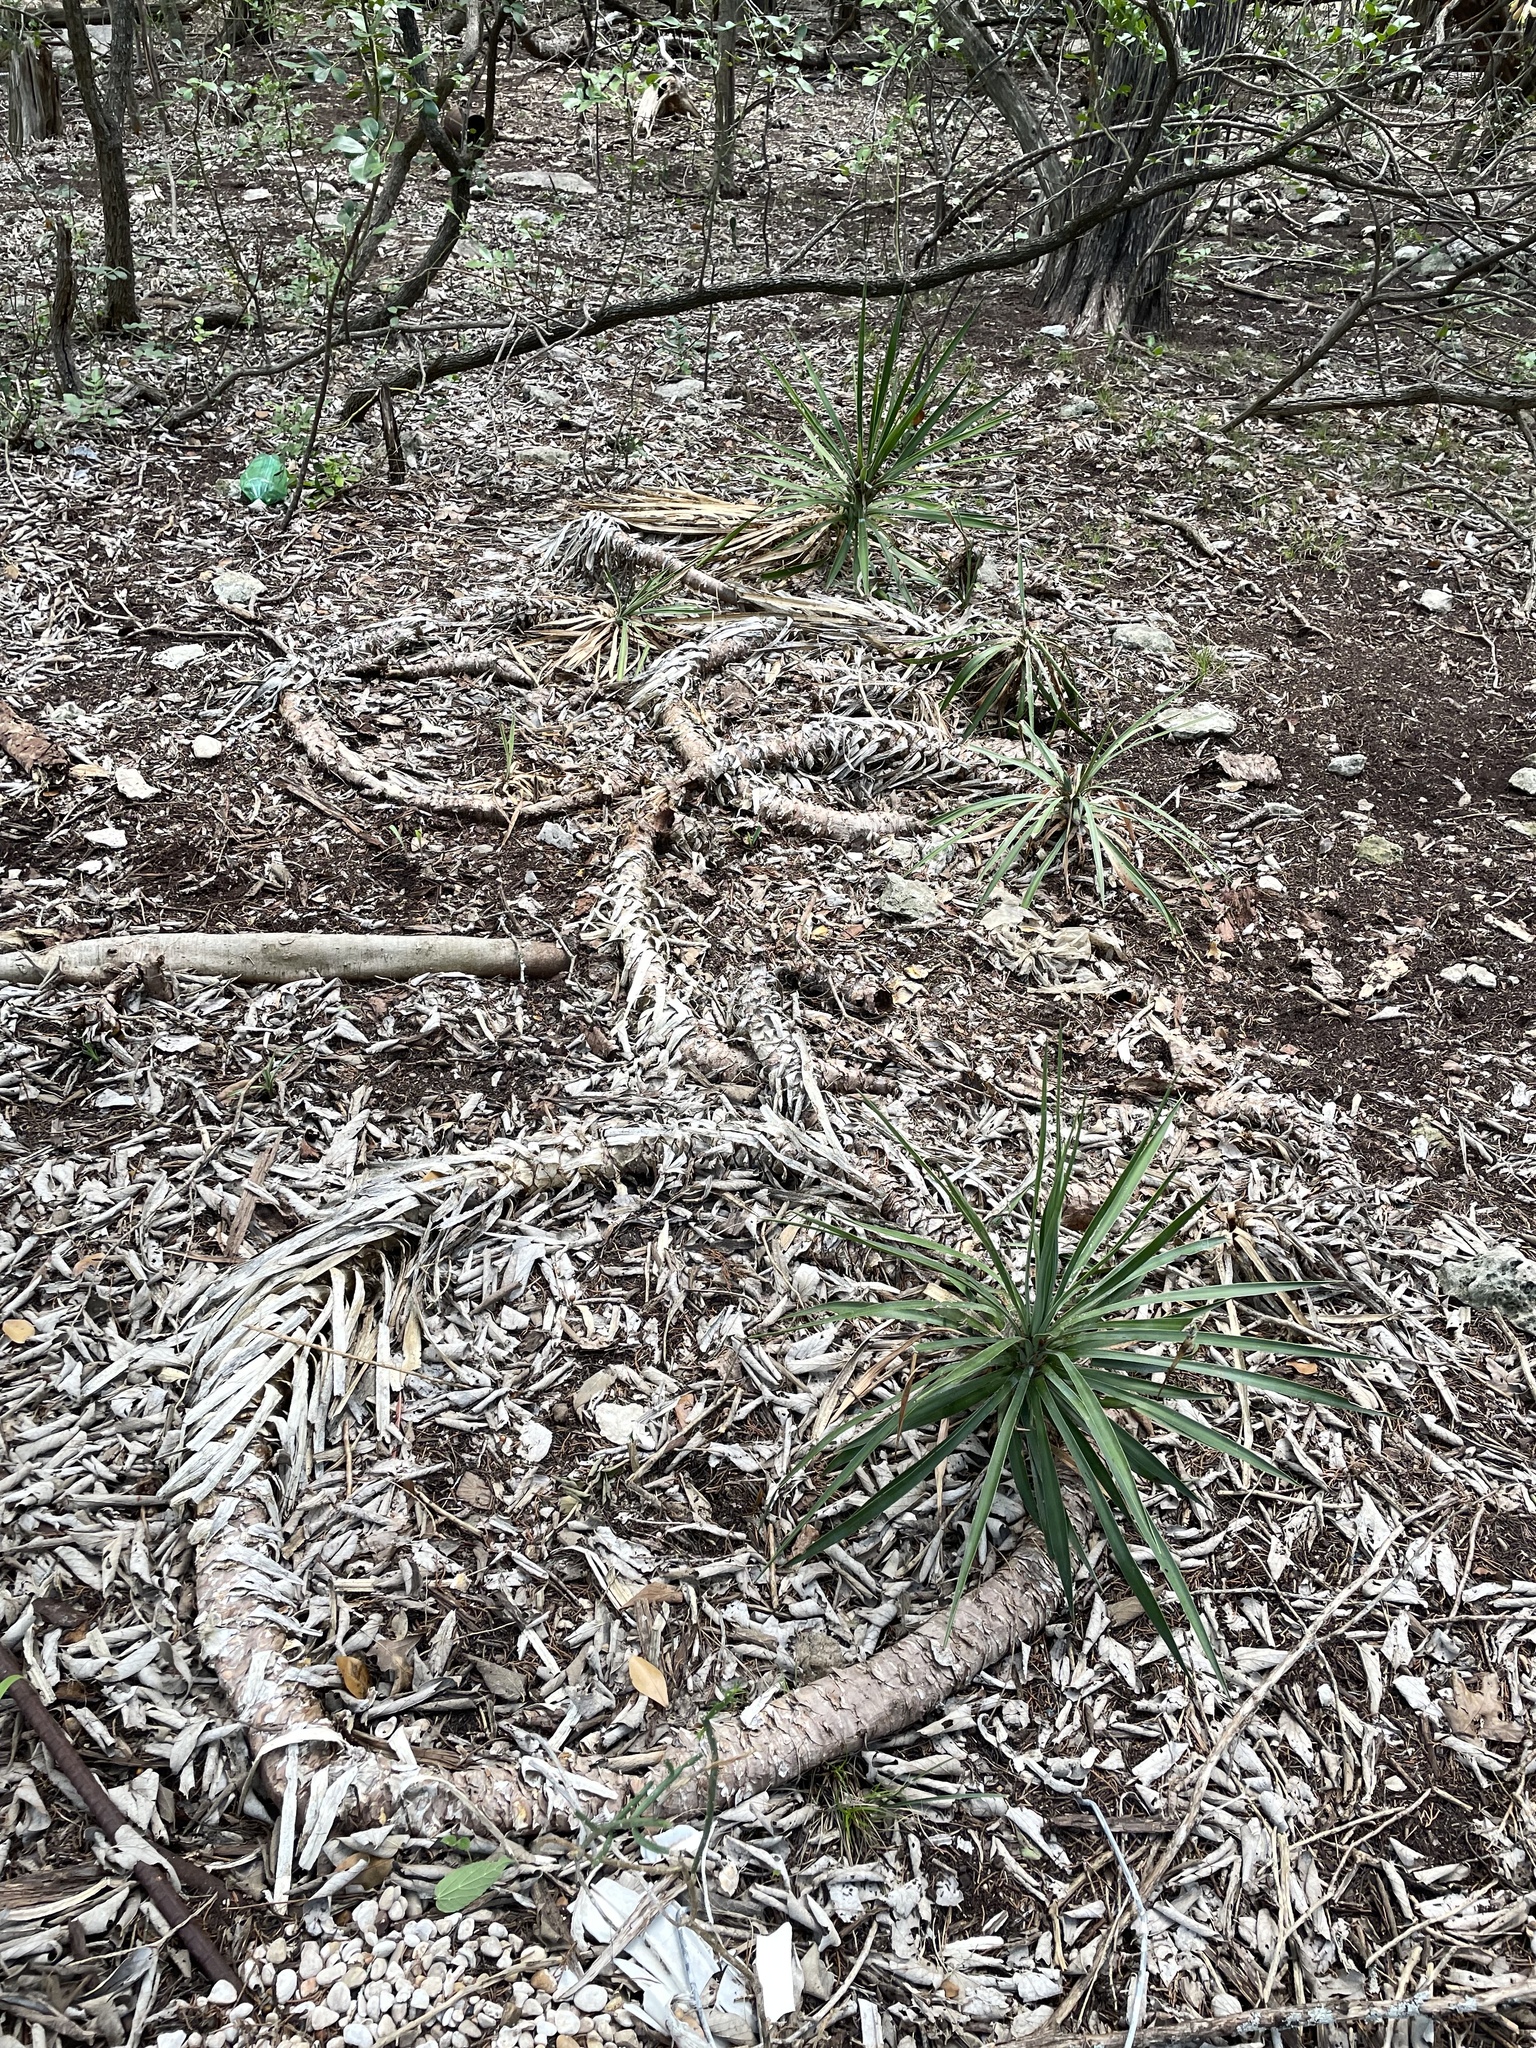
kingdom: Plantae
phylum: Tracheophyta
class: Liliopsida
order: Asparagales
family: Asparagaceae
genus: Yucca
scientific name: Yucca aloifolia
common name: Aloe yucca
